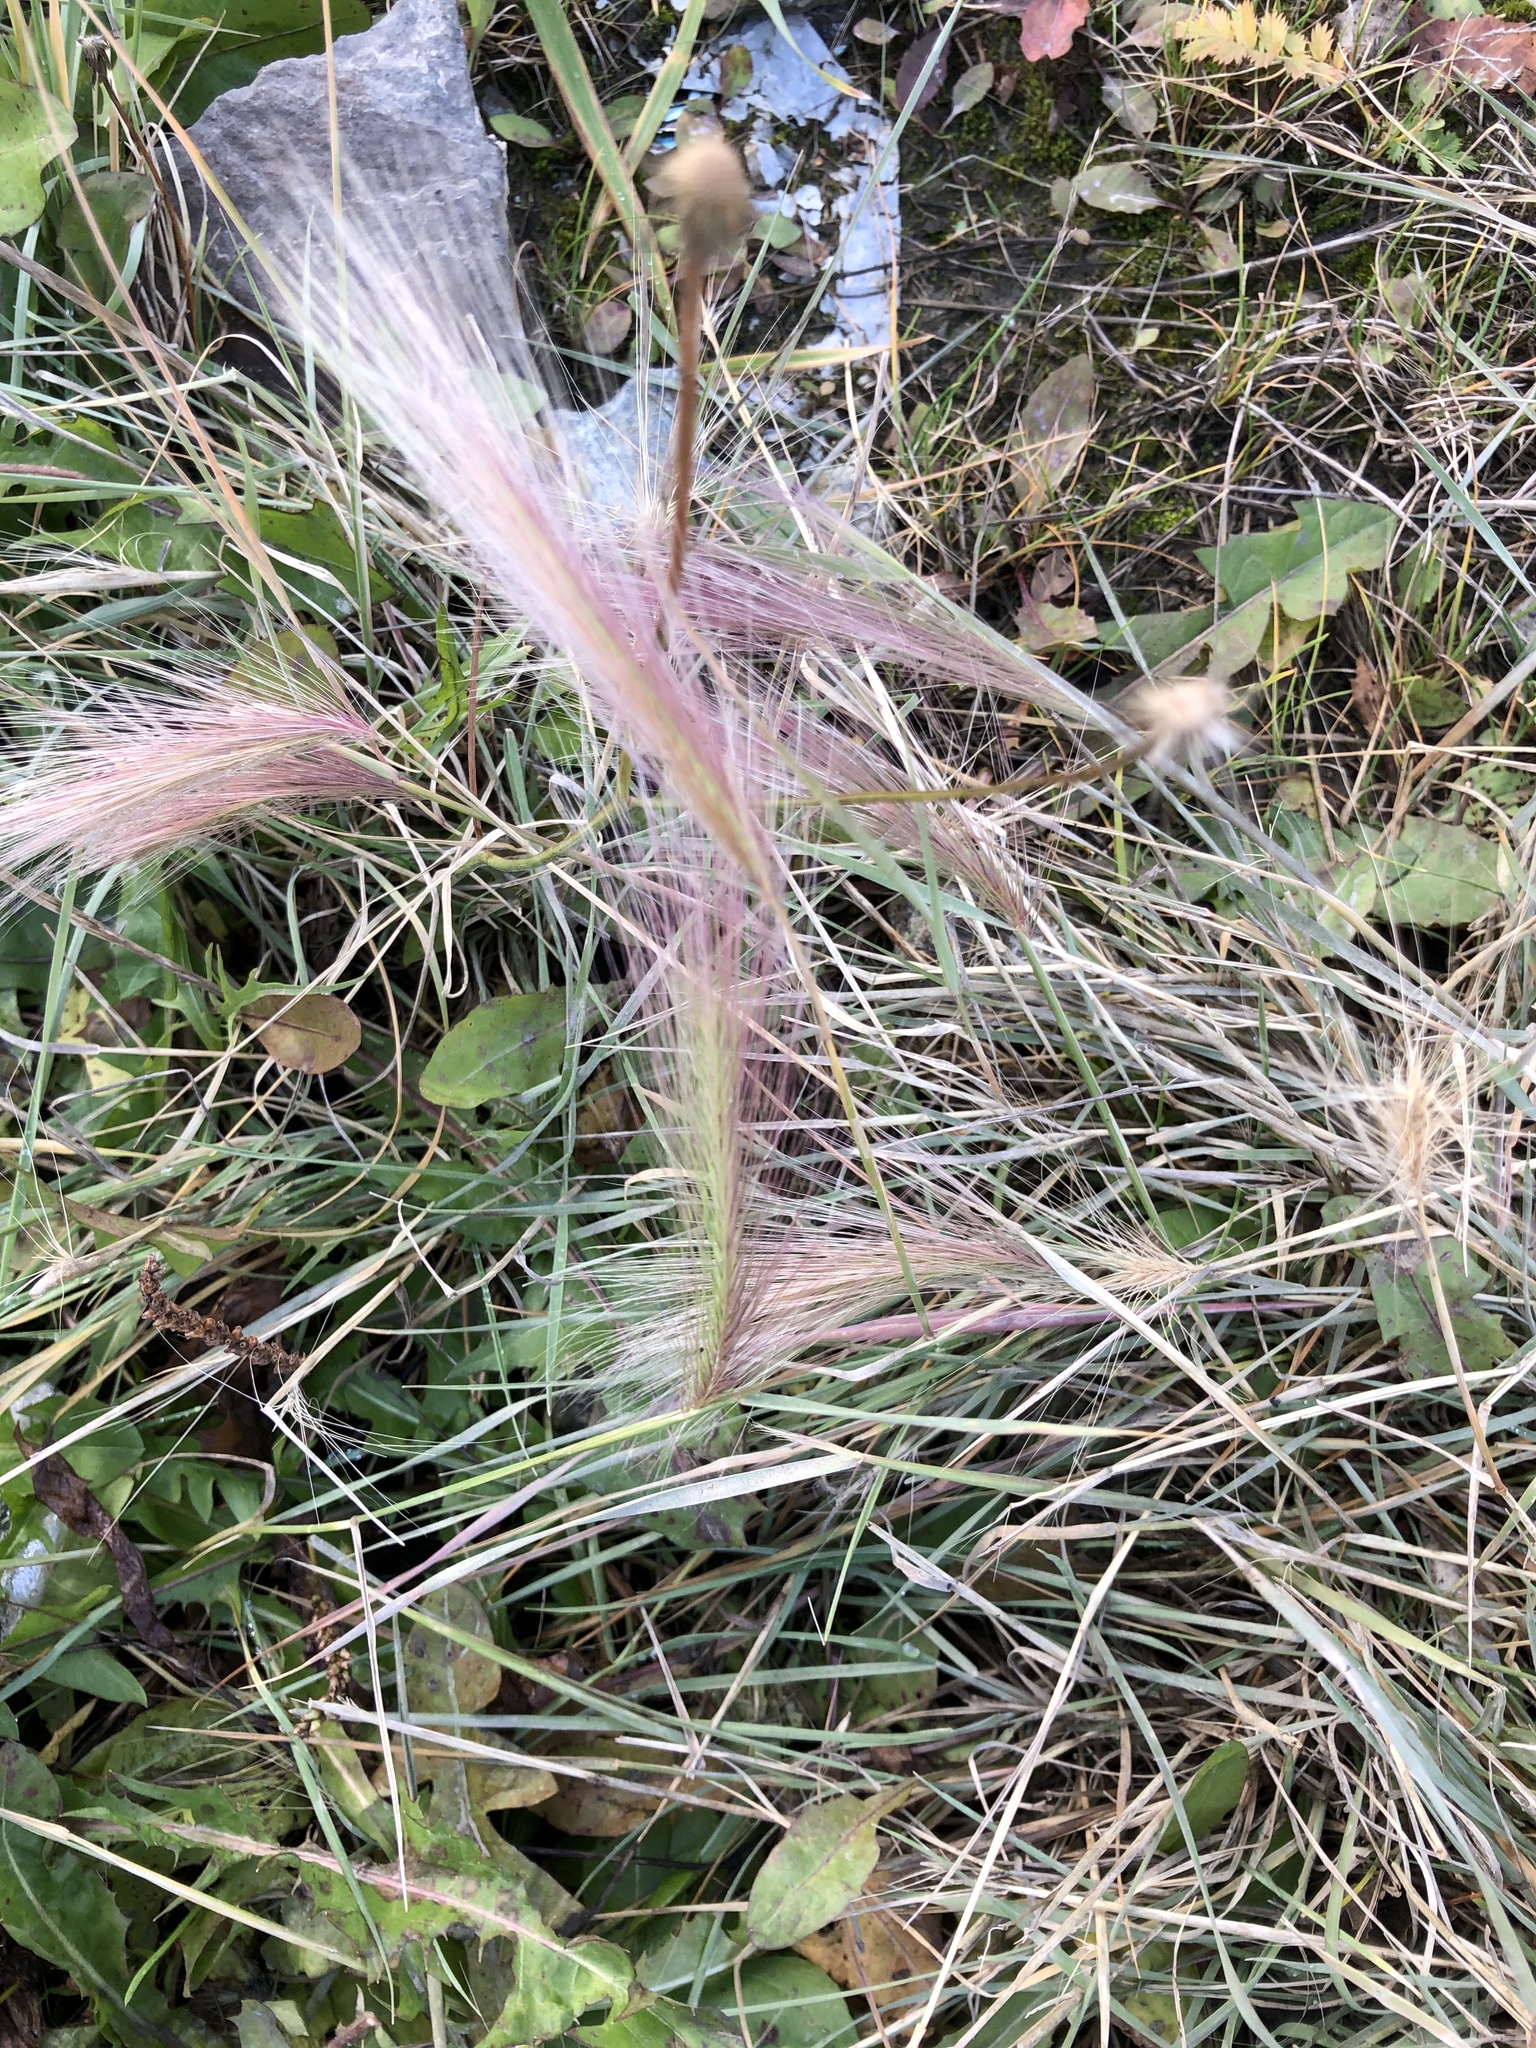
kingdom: Plantae
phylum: Tracheophyta
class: Liliopsida
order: Poales
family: Poaceae
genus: Hordeum
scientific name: Hordeum jubatum
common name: Foxtail barley
